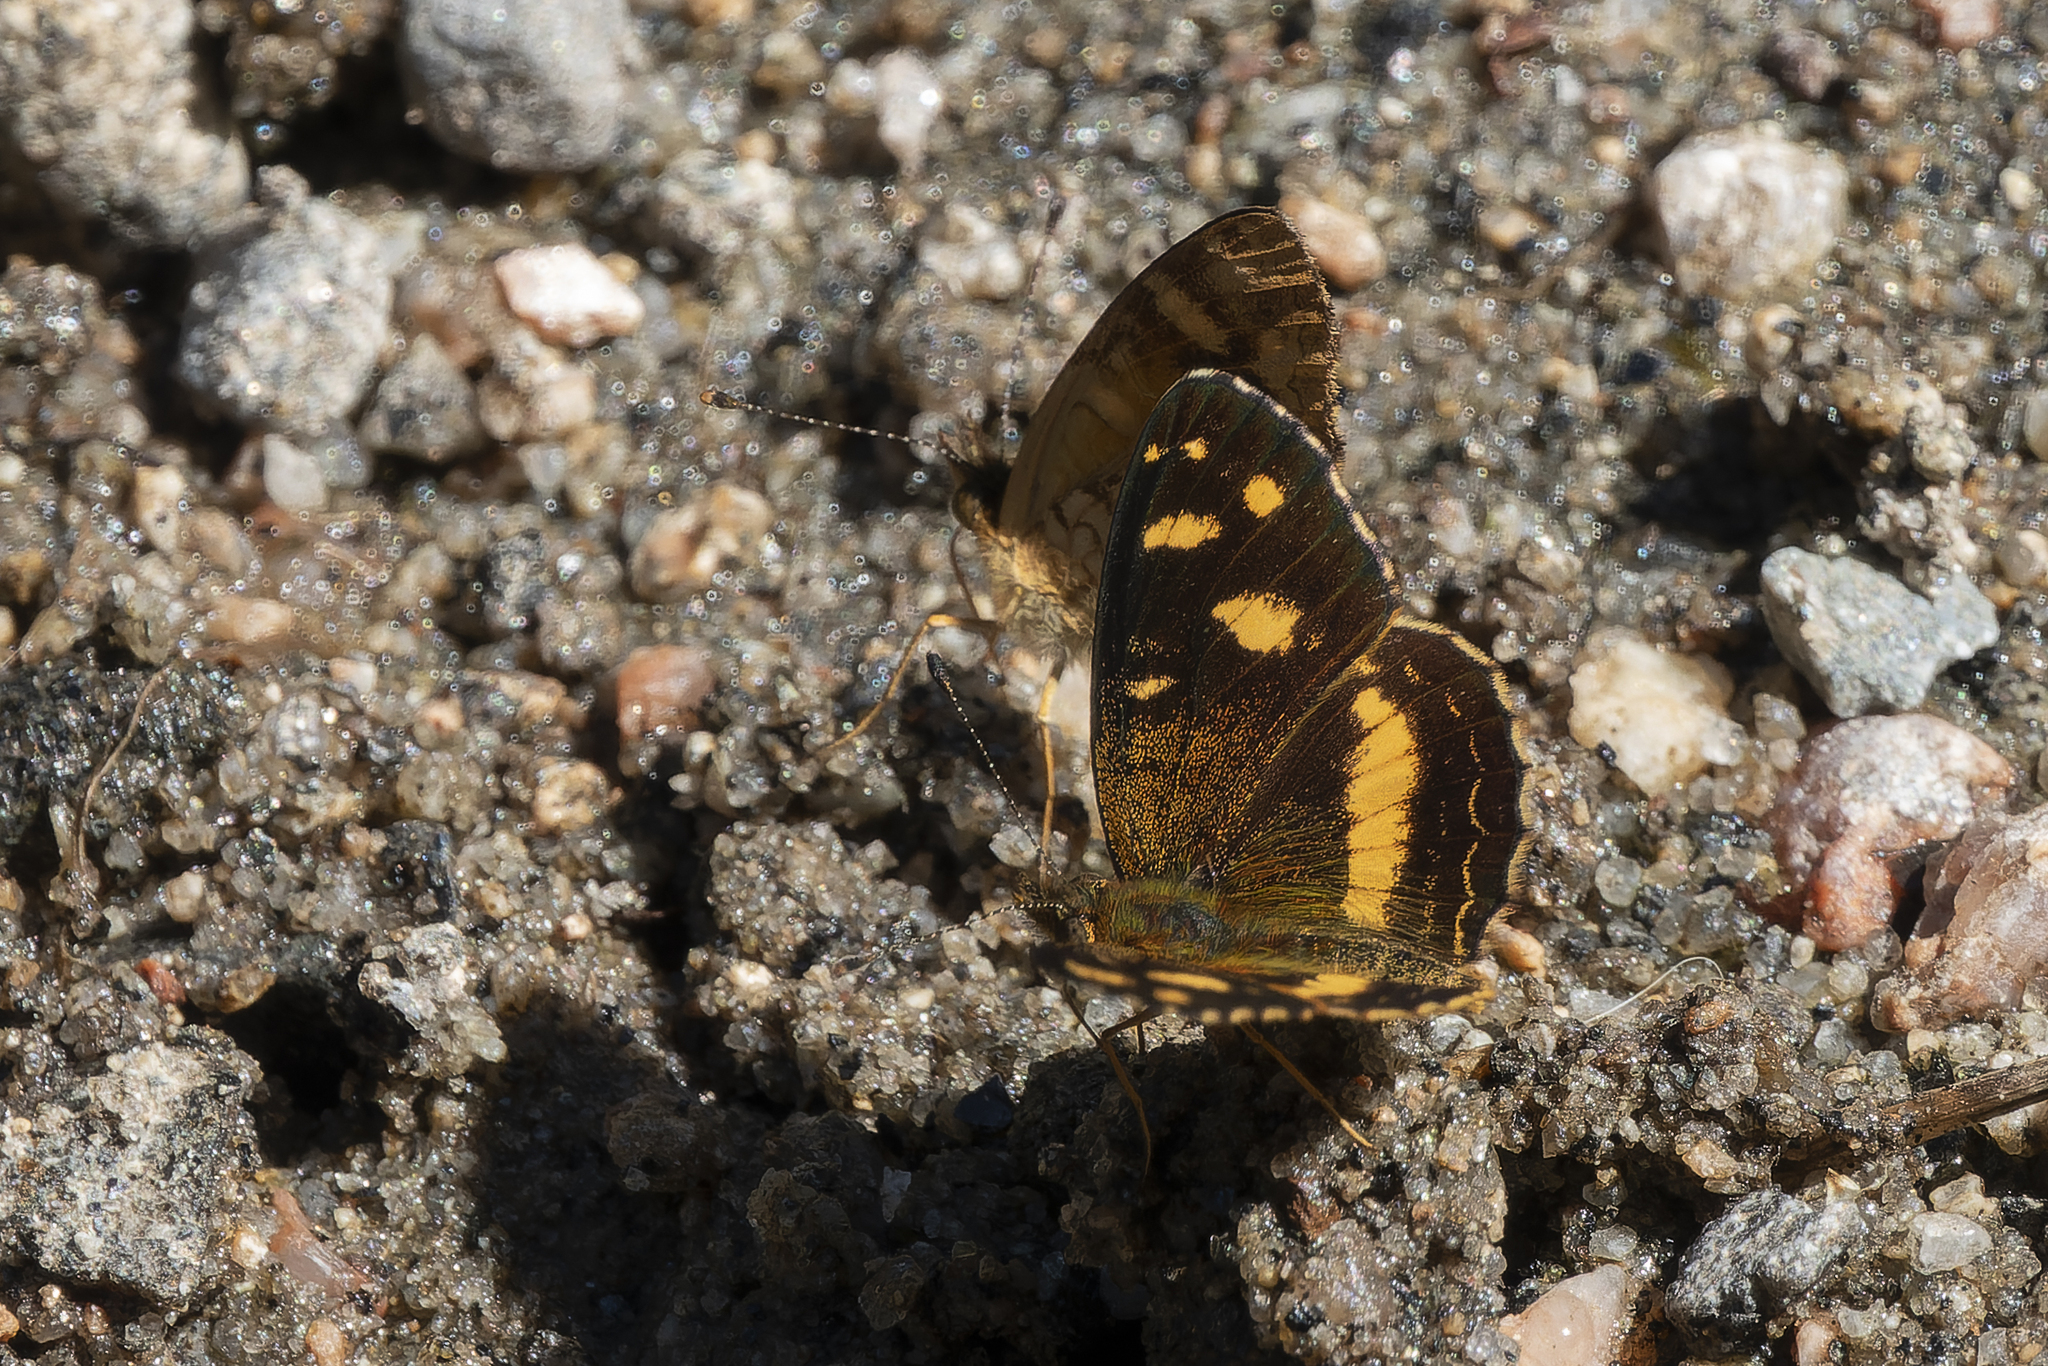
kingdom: Animalia
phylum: Arthropoda
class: Insecta
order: Lepidoptera
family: Nymphalidae
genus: Telenassa
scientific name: Telenassa berenice
